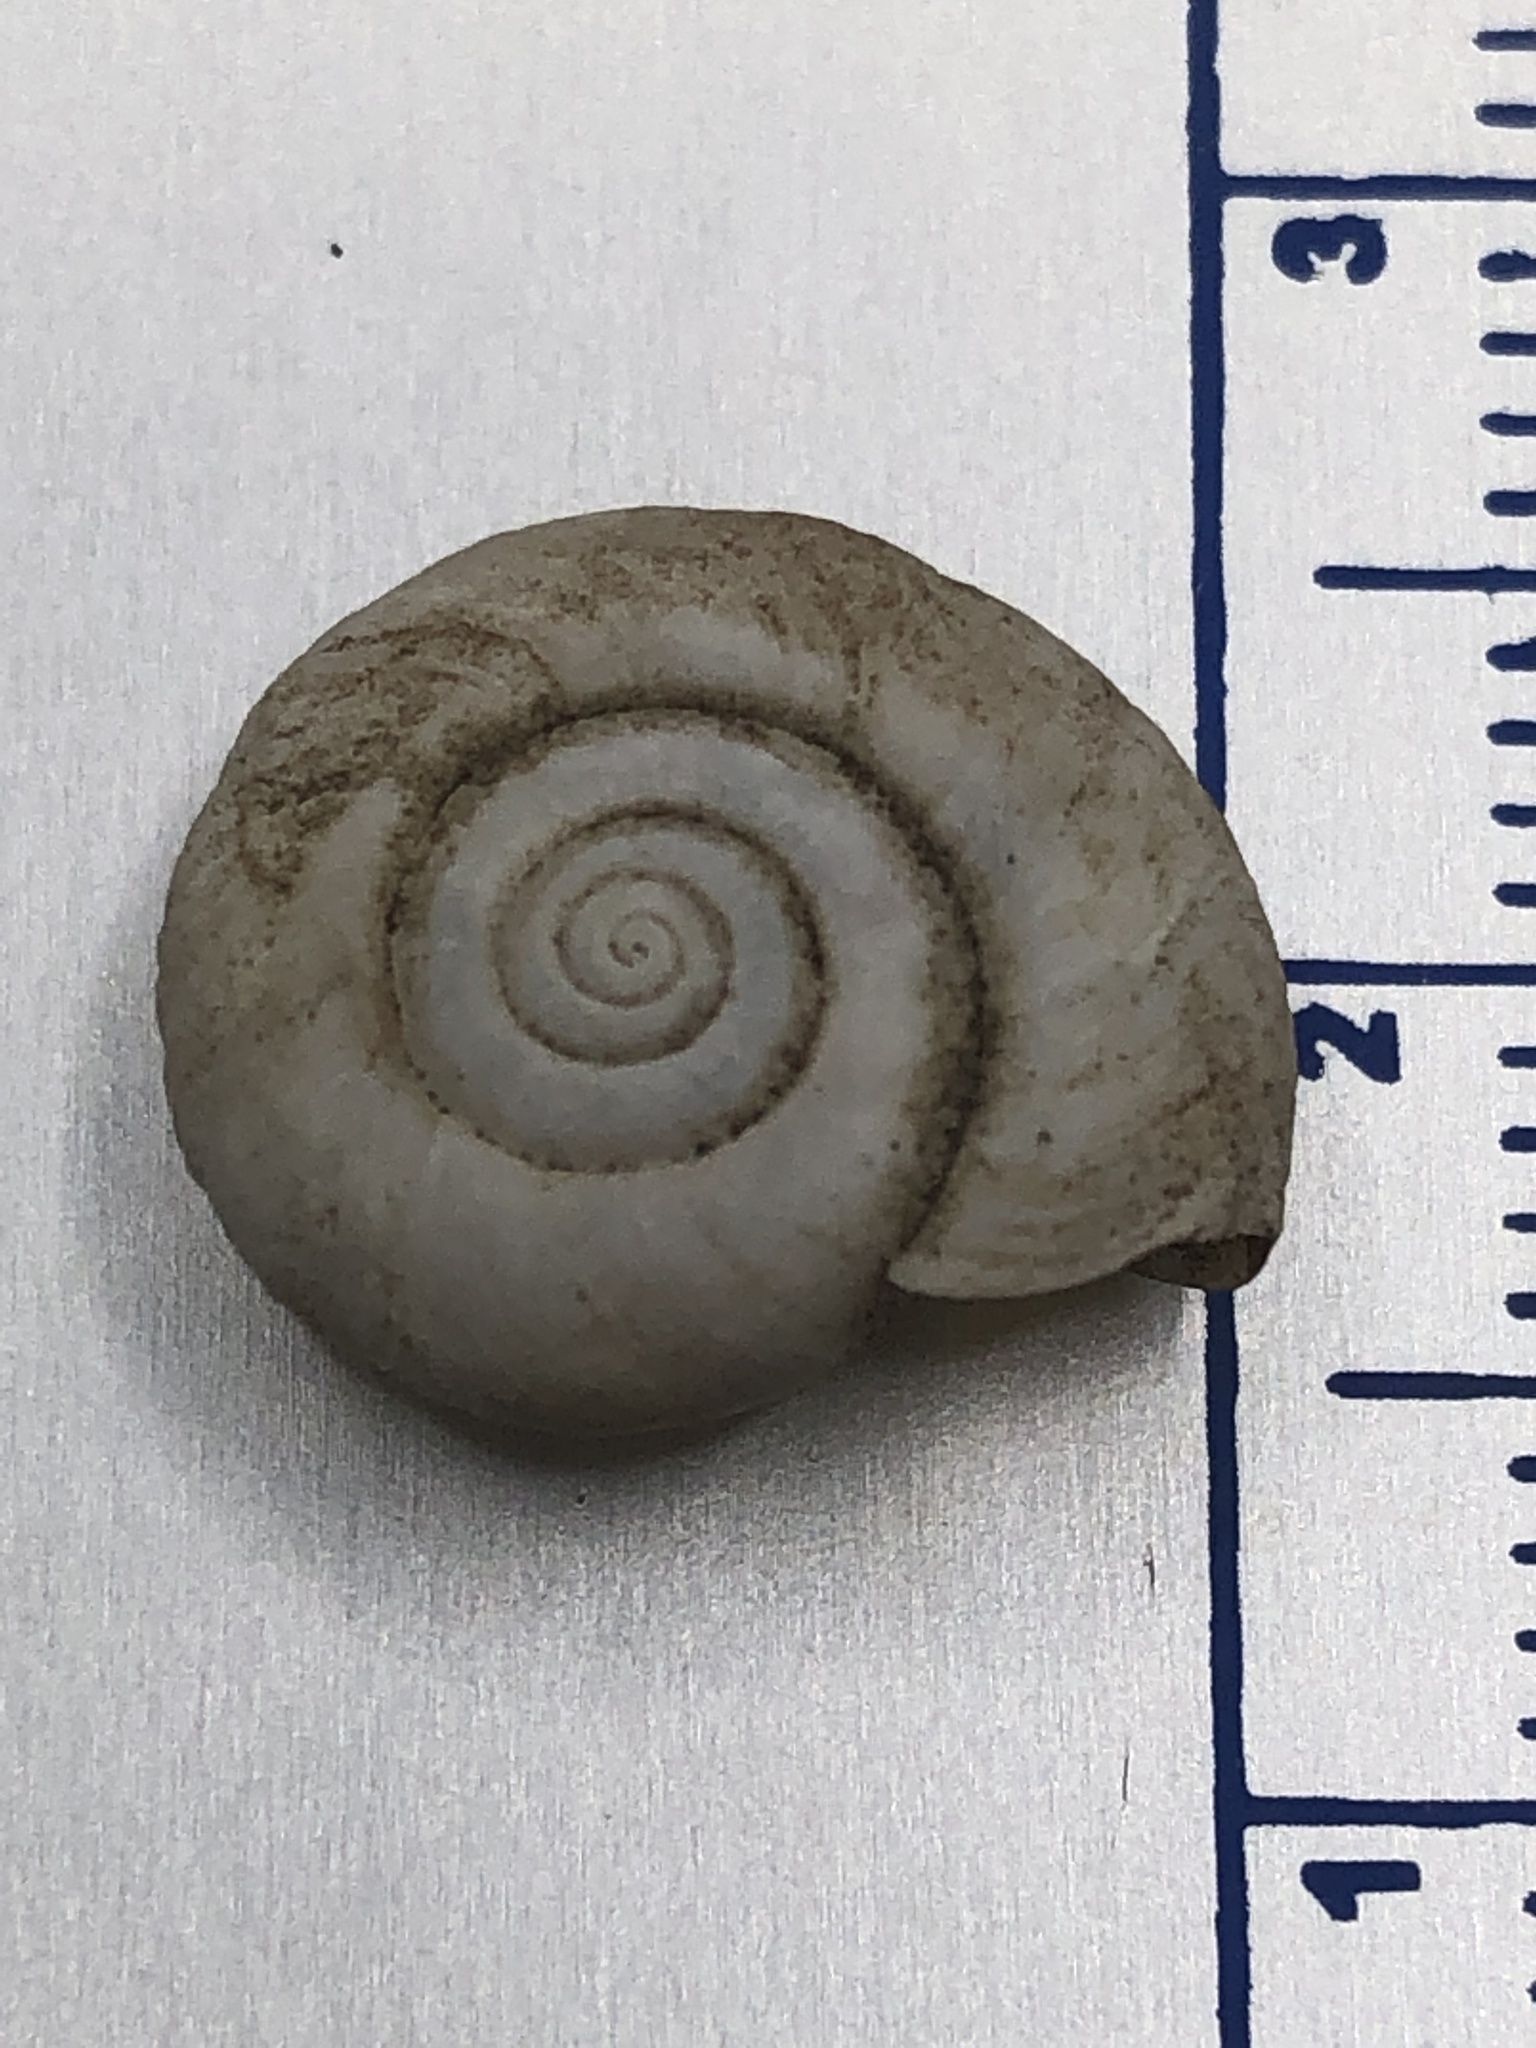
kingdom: Animalia
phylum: Mollusca
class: Gastropoda
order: Stylommatophora
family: Haplotrematidae
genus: Haplotrema
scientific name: Haplotrema concavum
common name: Gray-foot lancetooth
